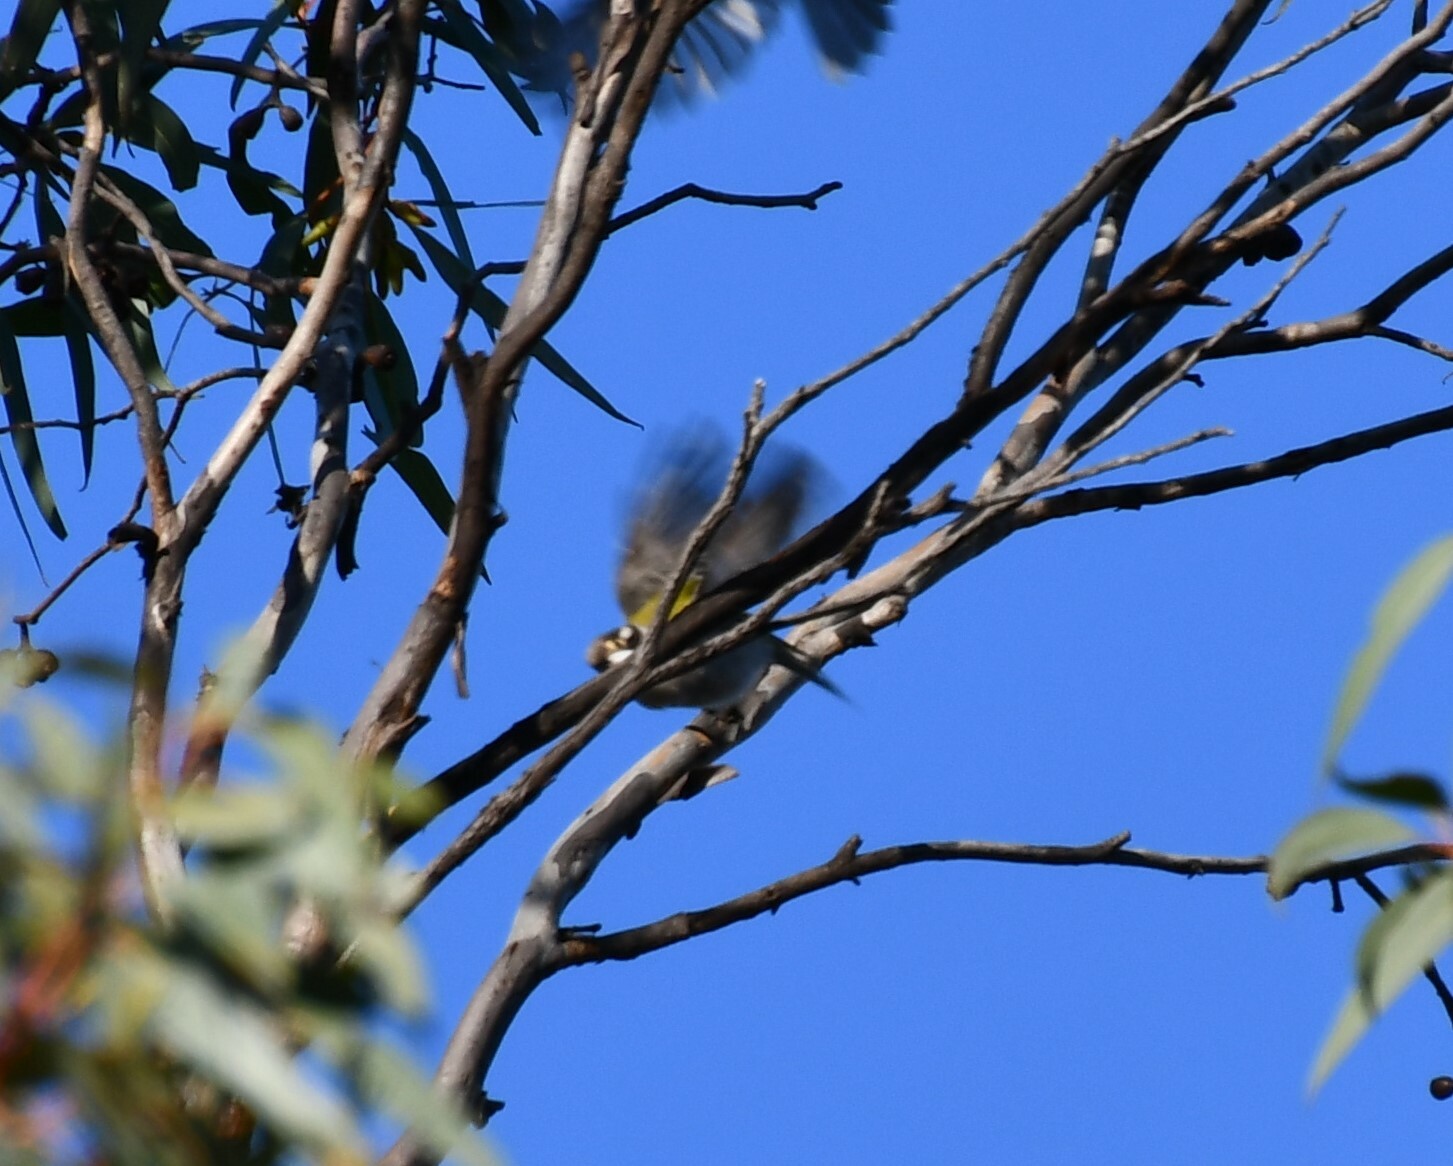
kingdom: Animalia
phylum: Chordata
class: Aves
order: Passeriformes
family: Meliphagidae
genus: Melithreptus
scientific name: Melithreptus chloropsis
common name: Gilbert's honeyeater
